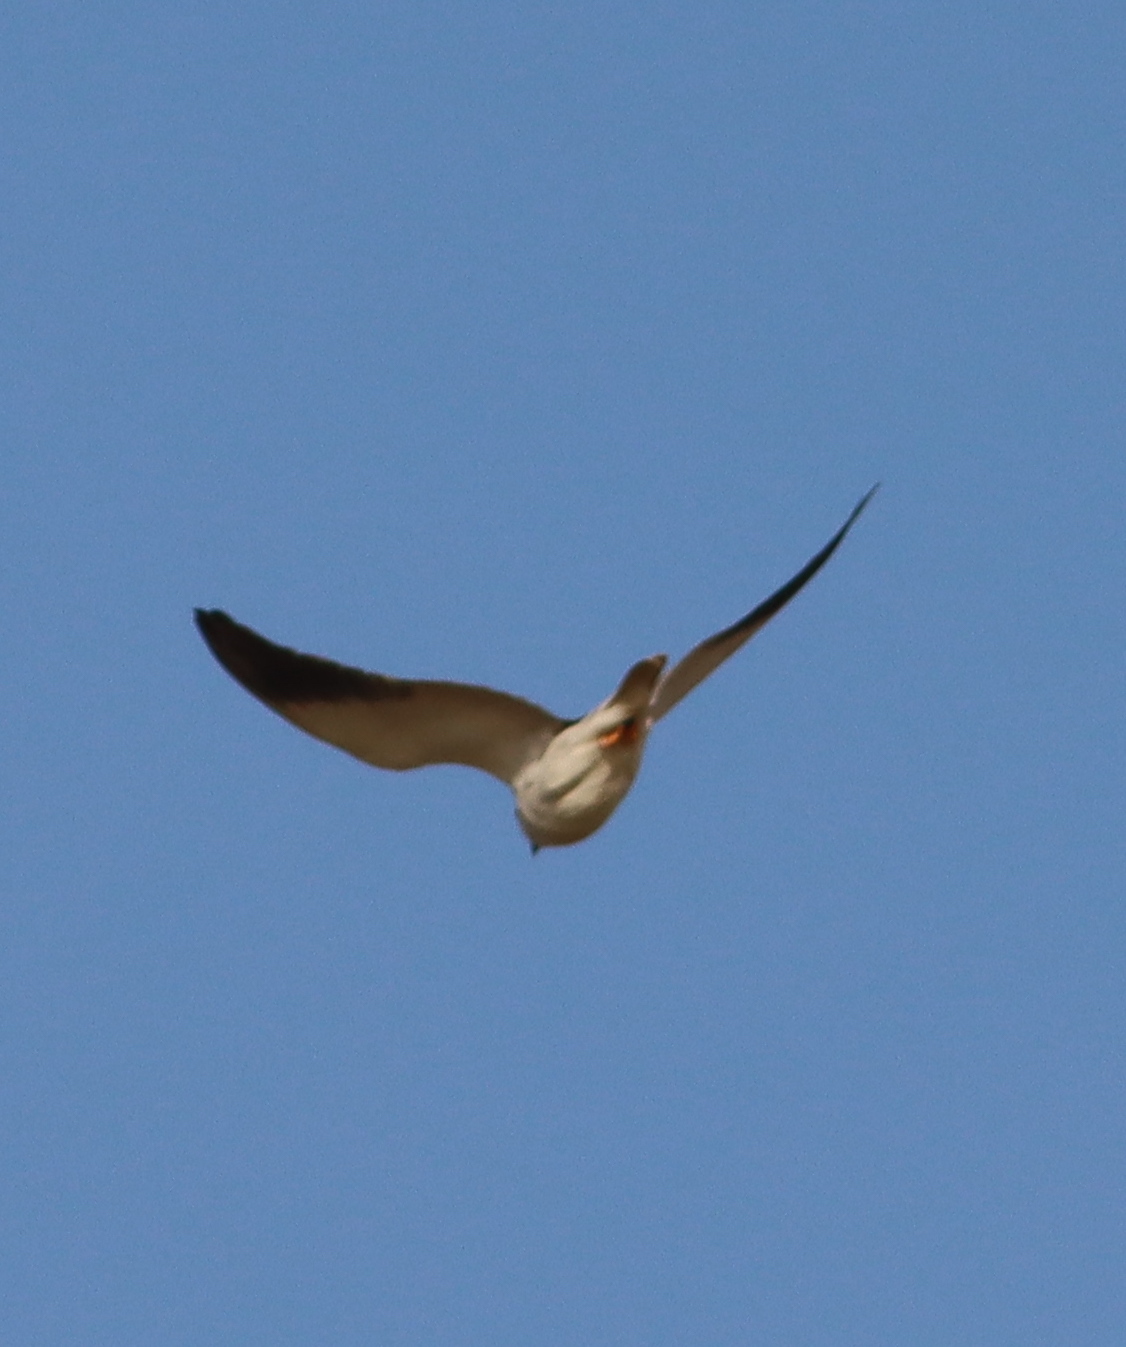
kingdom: Animalia
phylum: Chordata
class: Aves
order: Accipitriformes
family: Accipitridae
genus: Elanus
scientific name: Elanus caeruleus
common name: Black-winged kite
